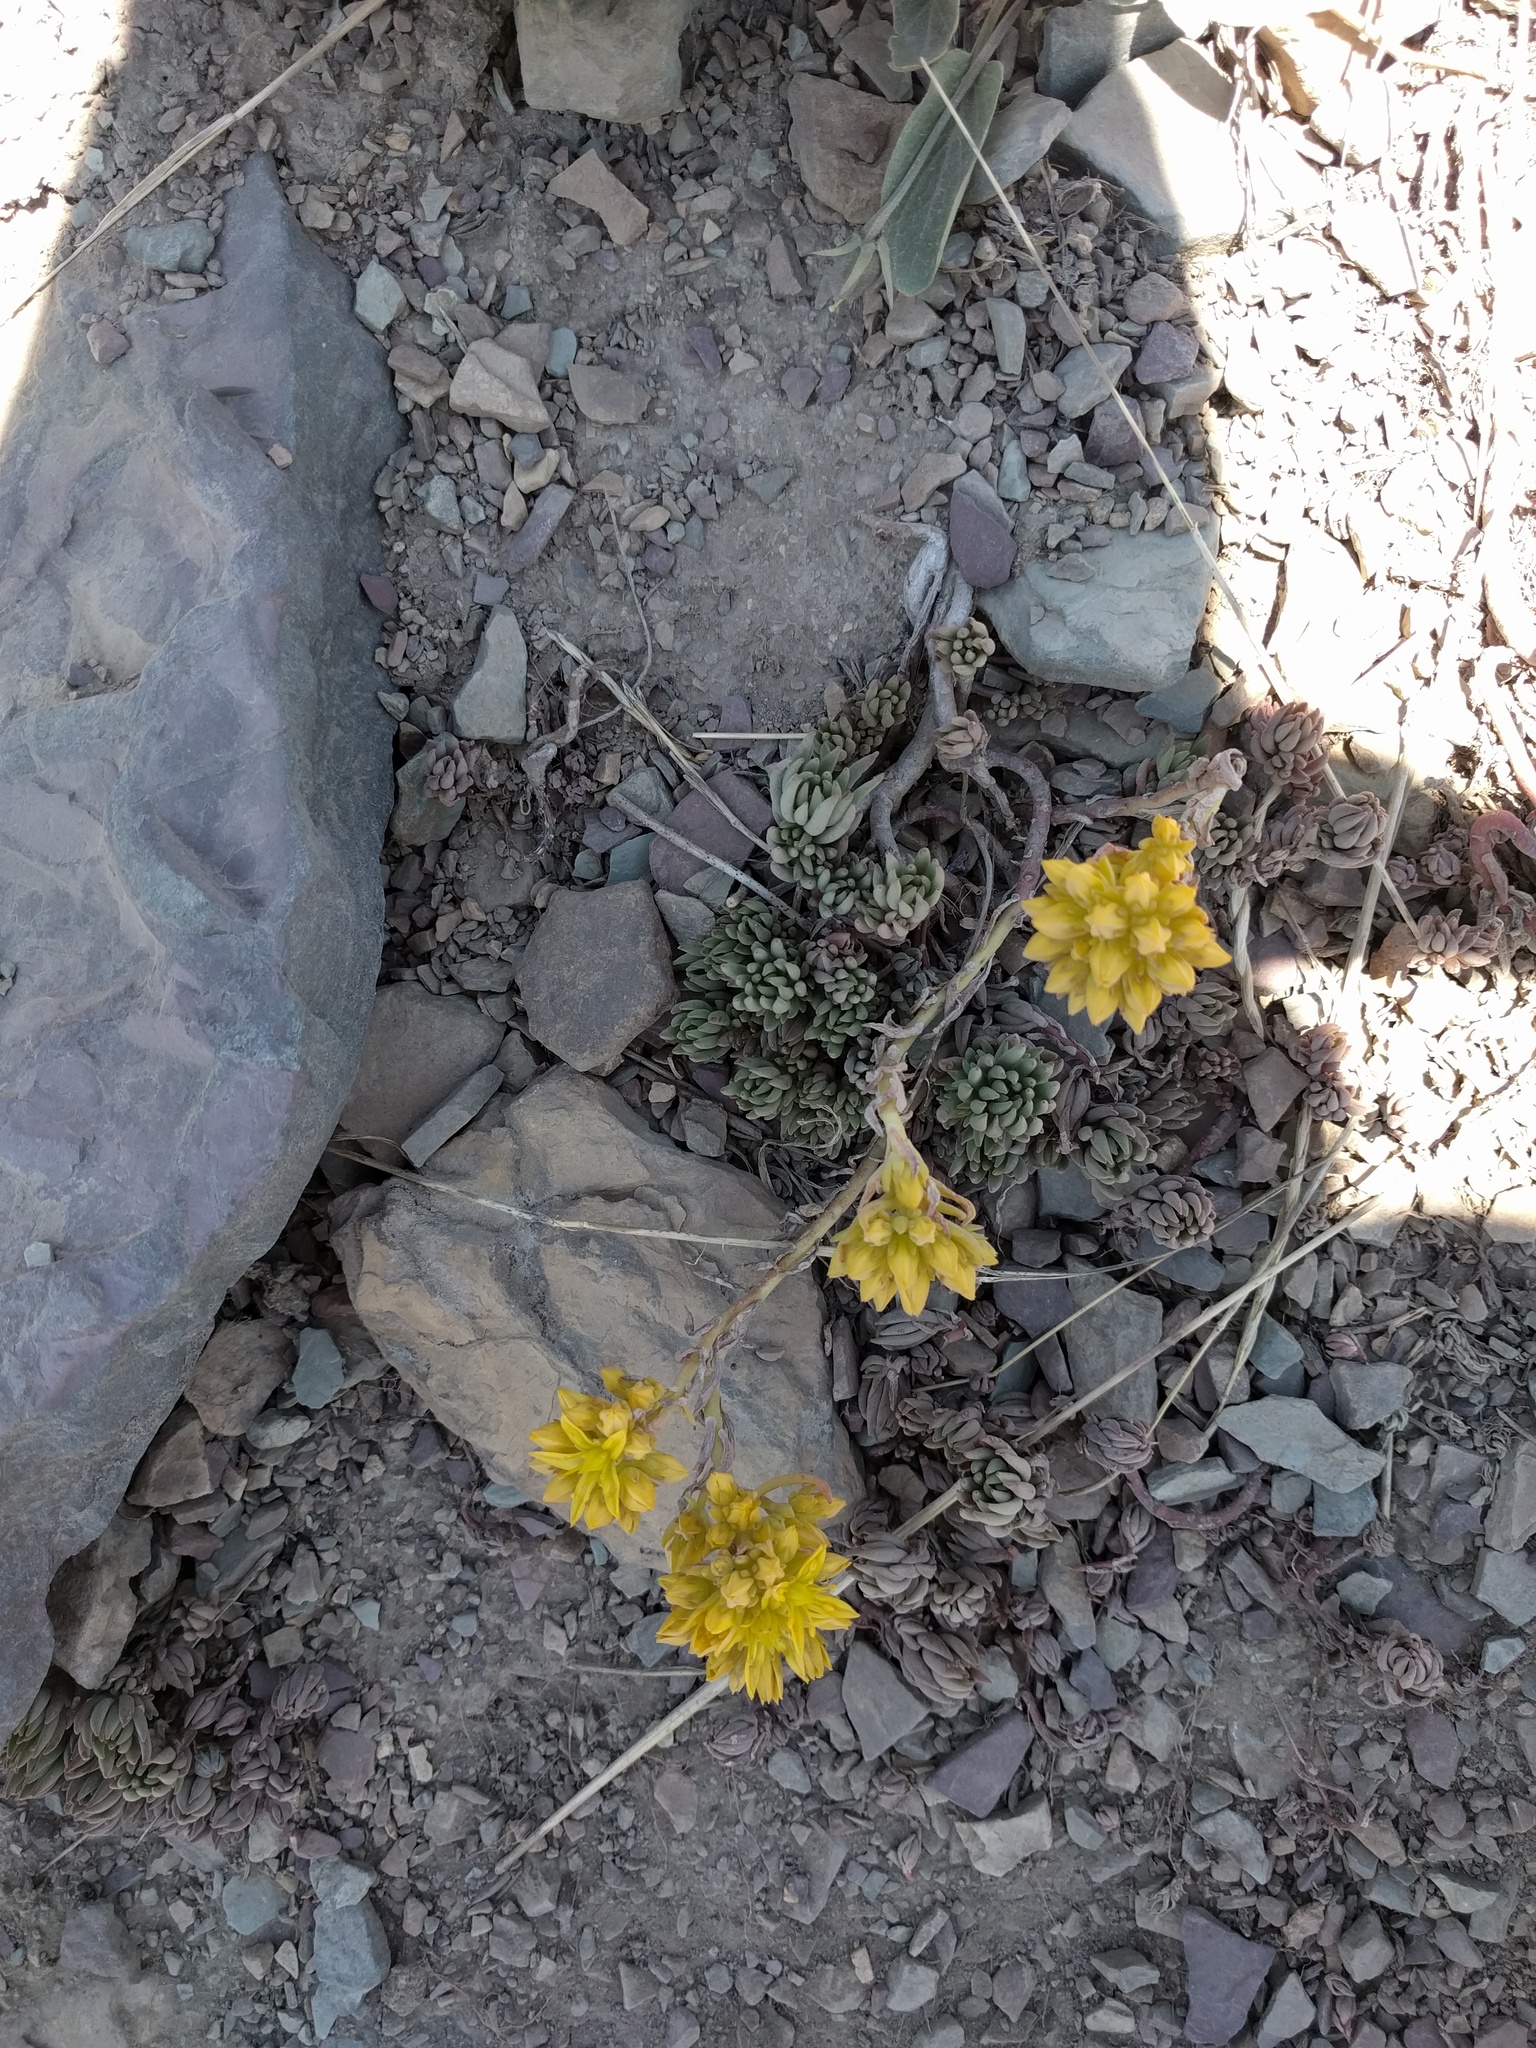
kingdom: Plantae
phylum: Tracheophyta
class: Magnoliopsida
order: Saxifragales
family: Crassulaceae
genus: Sedum
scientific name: Sedum lanceolatum
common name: Common stonecrop
